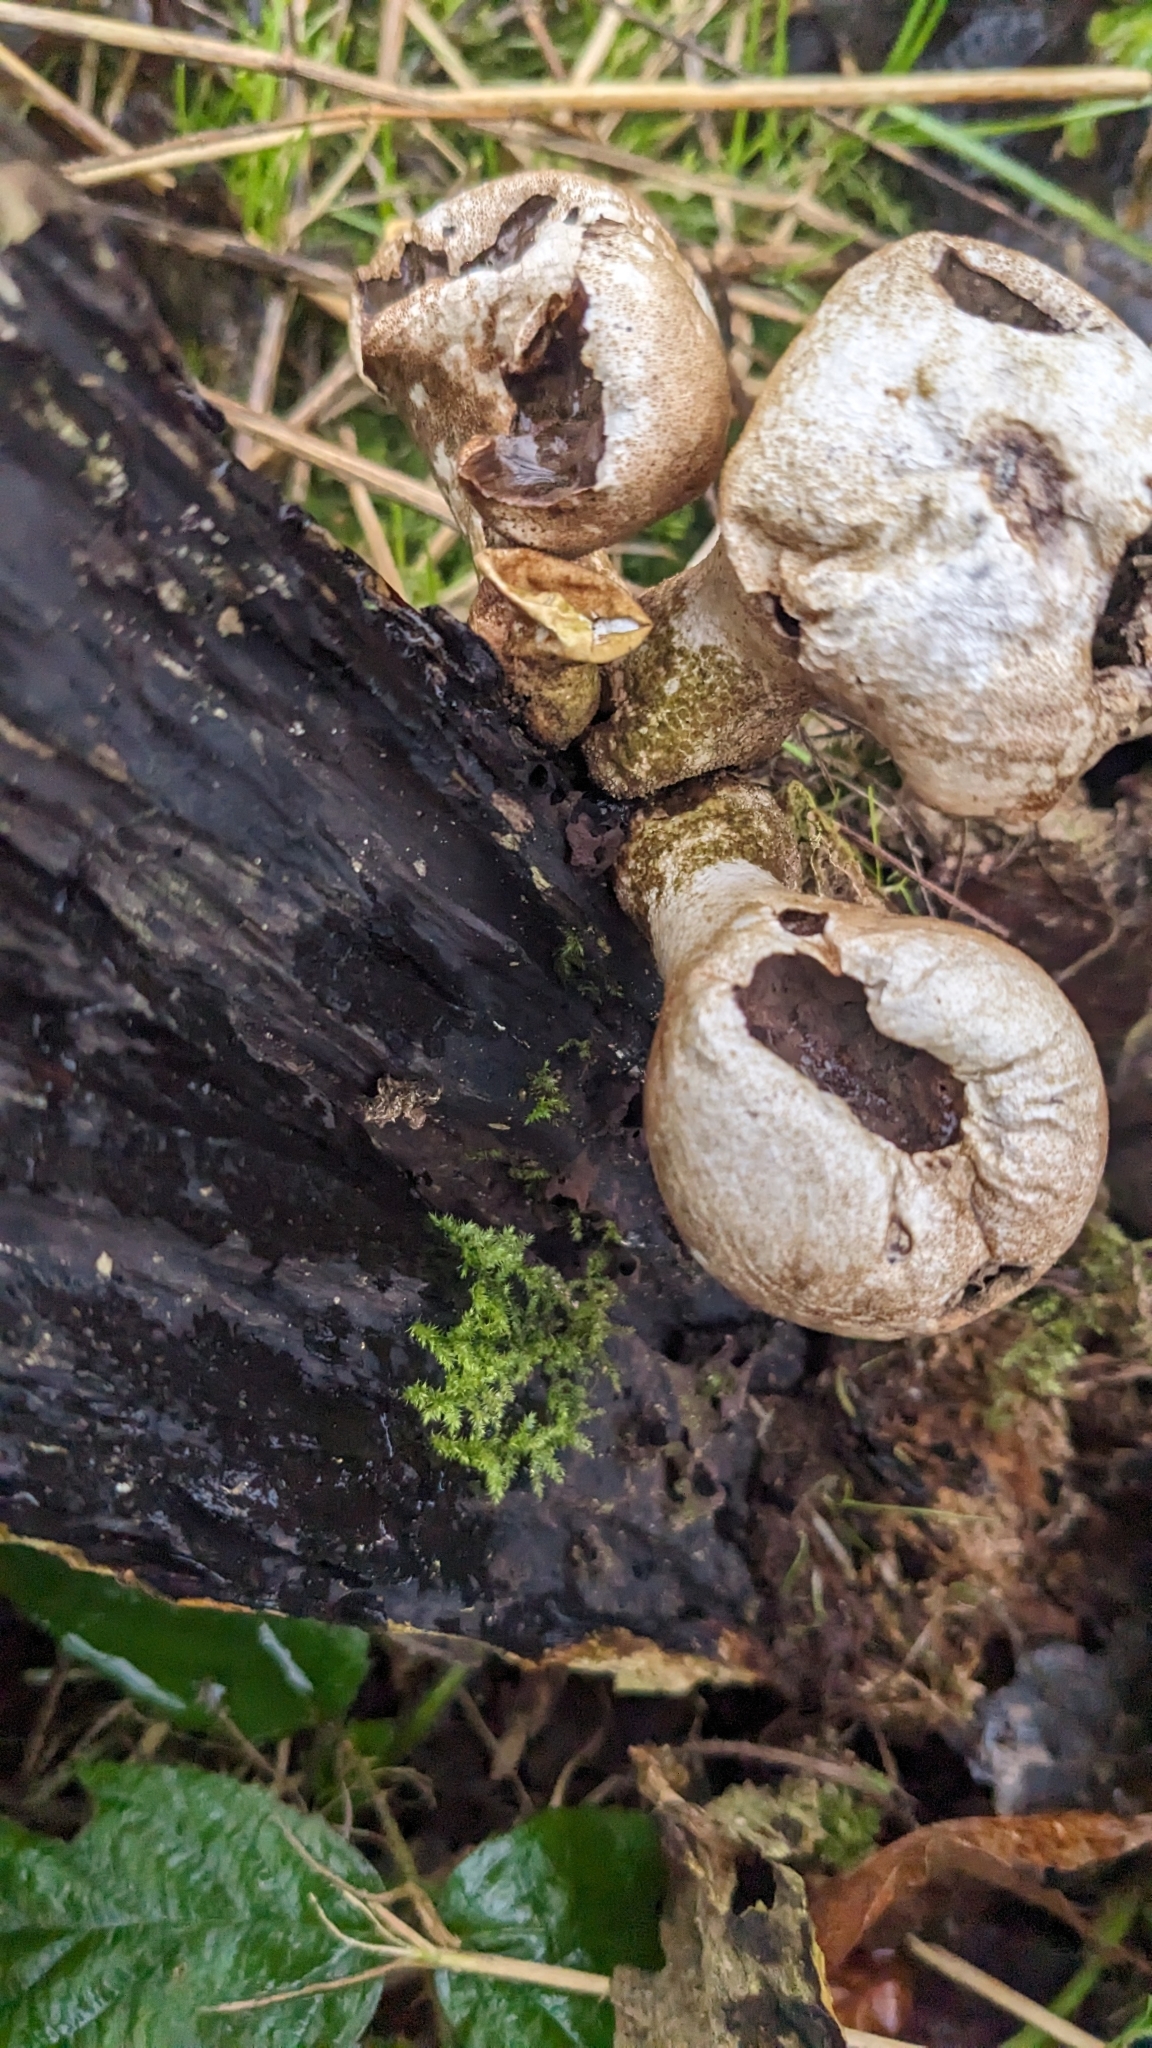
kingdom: Fungi
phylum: Basidiomycota
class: Agaricomycetes
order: Agaricales
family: Lycoperdaceae
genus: Apioperdon
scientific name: Apioperdon pyriforme
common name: Pear-shaped puffball
